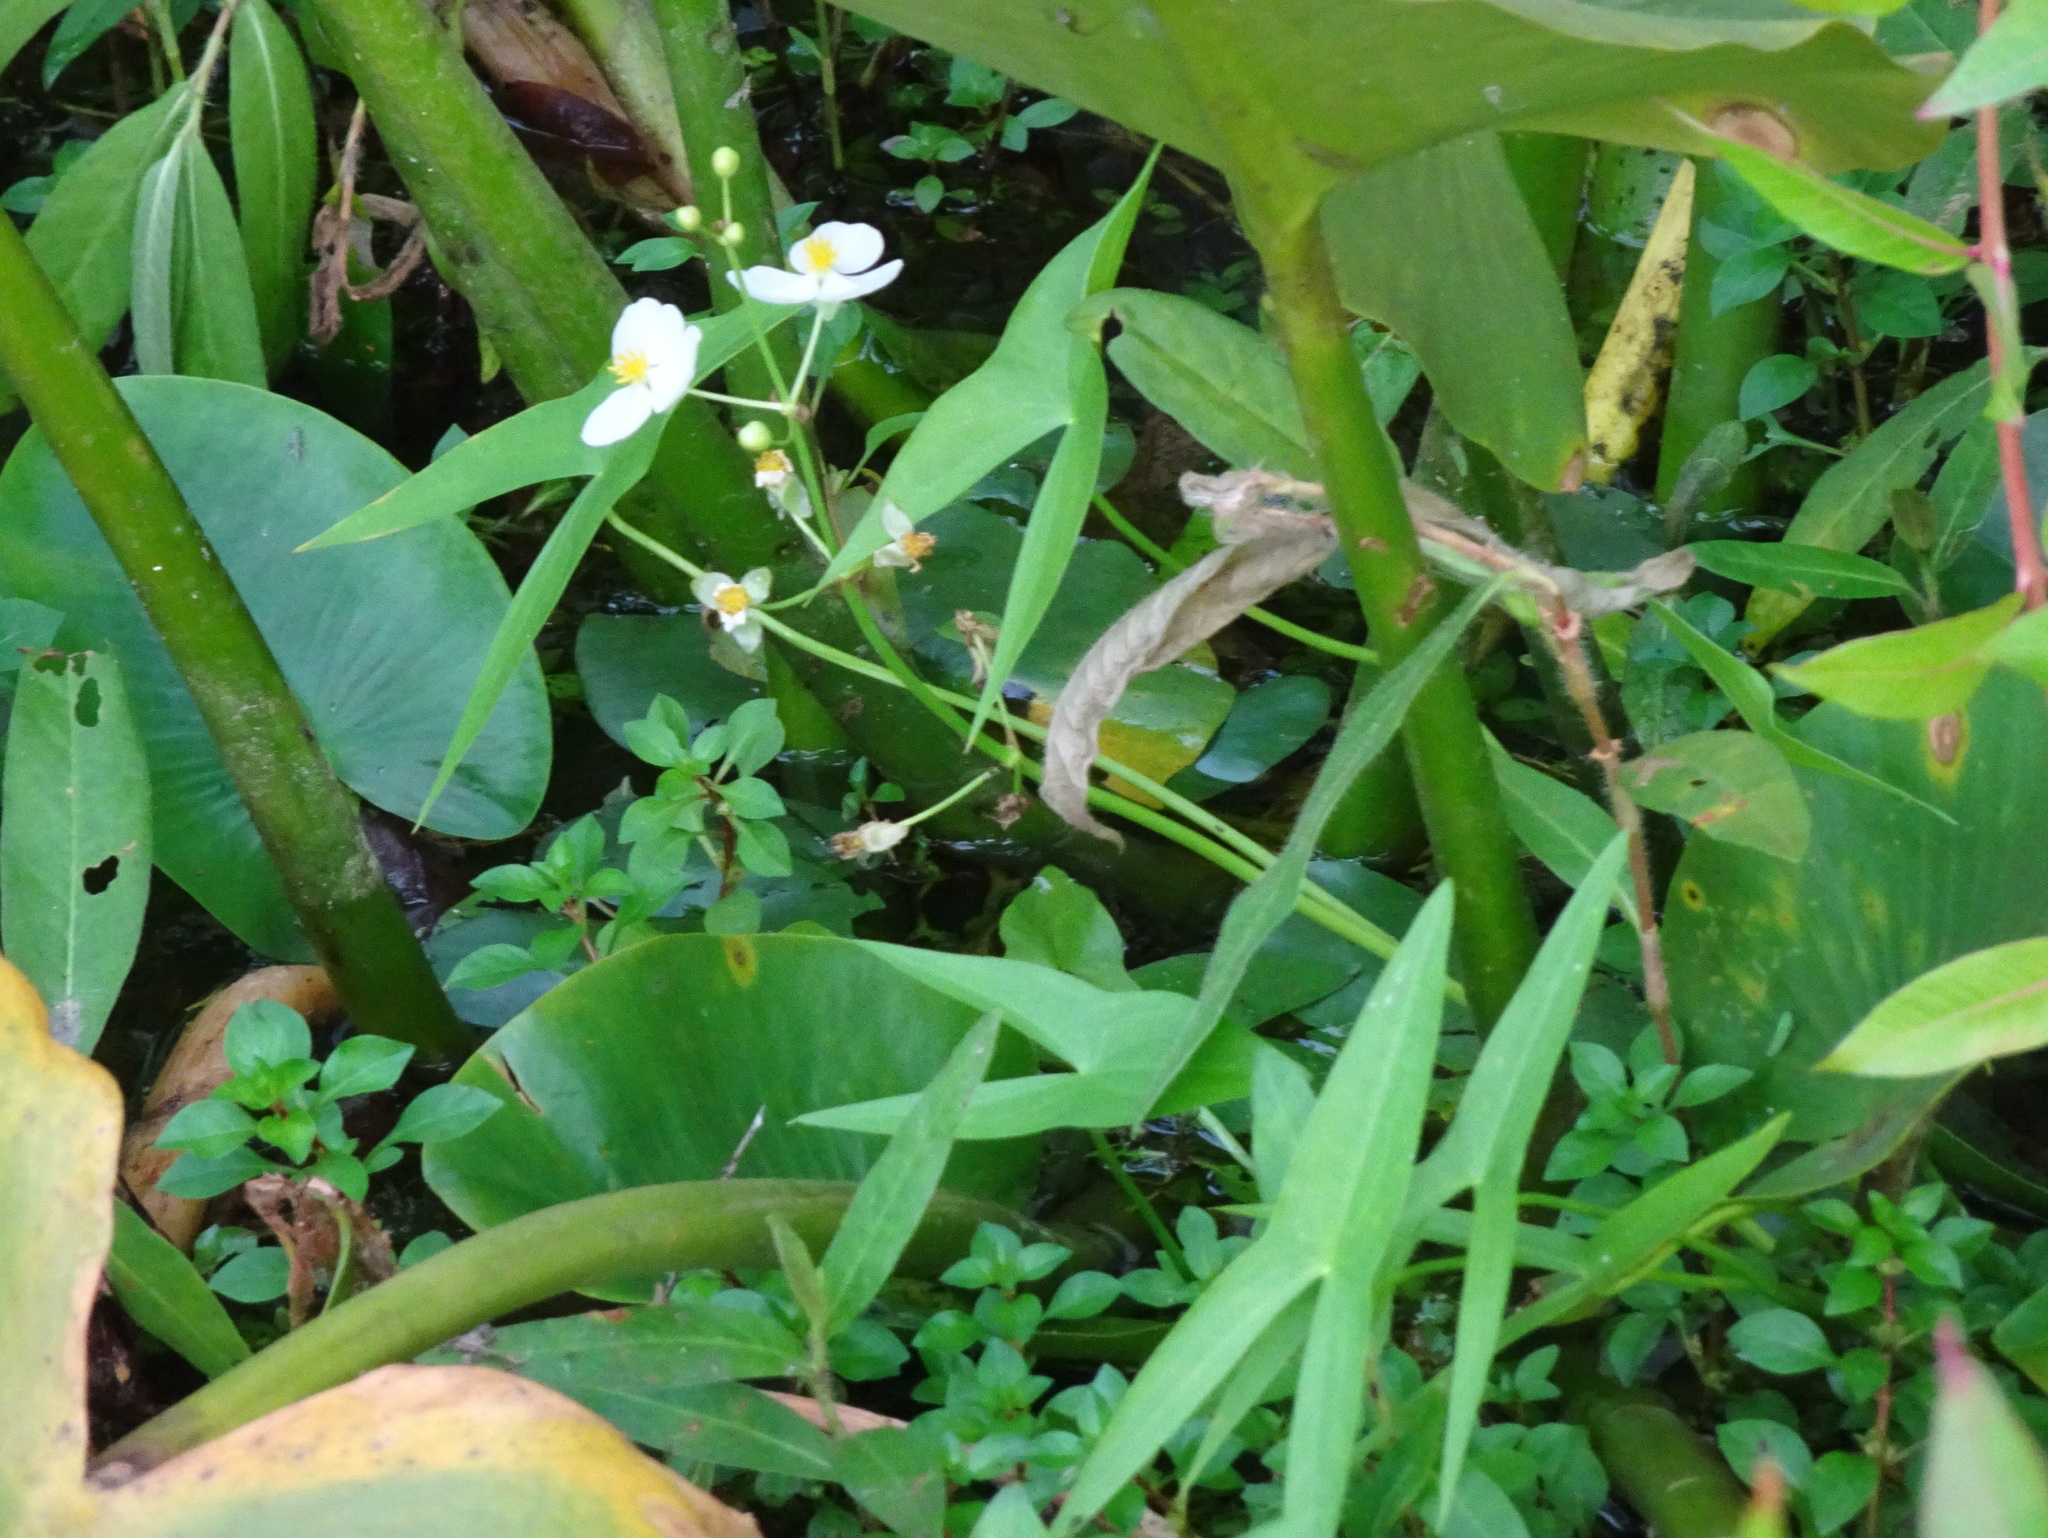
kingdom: Plantae
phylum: Tracheophyta
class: Liliopsida
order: Alismatales
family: Alismataceae
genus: Sagittaria
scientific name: Sagittaria latifolia
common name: Duck-potato
